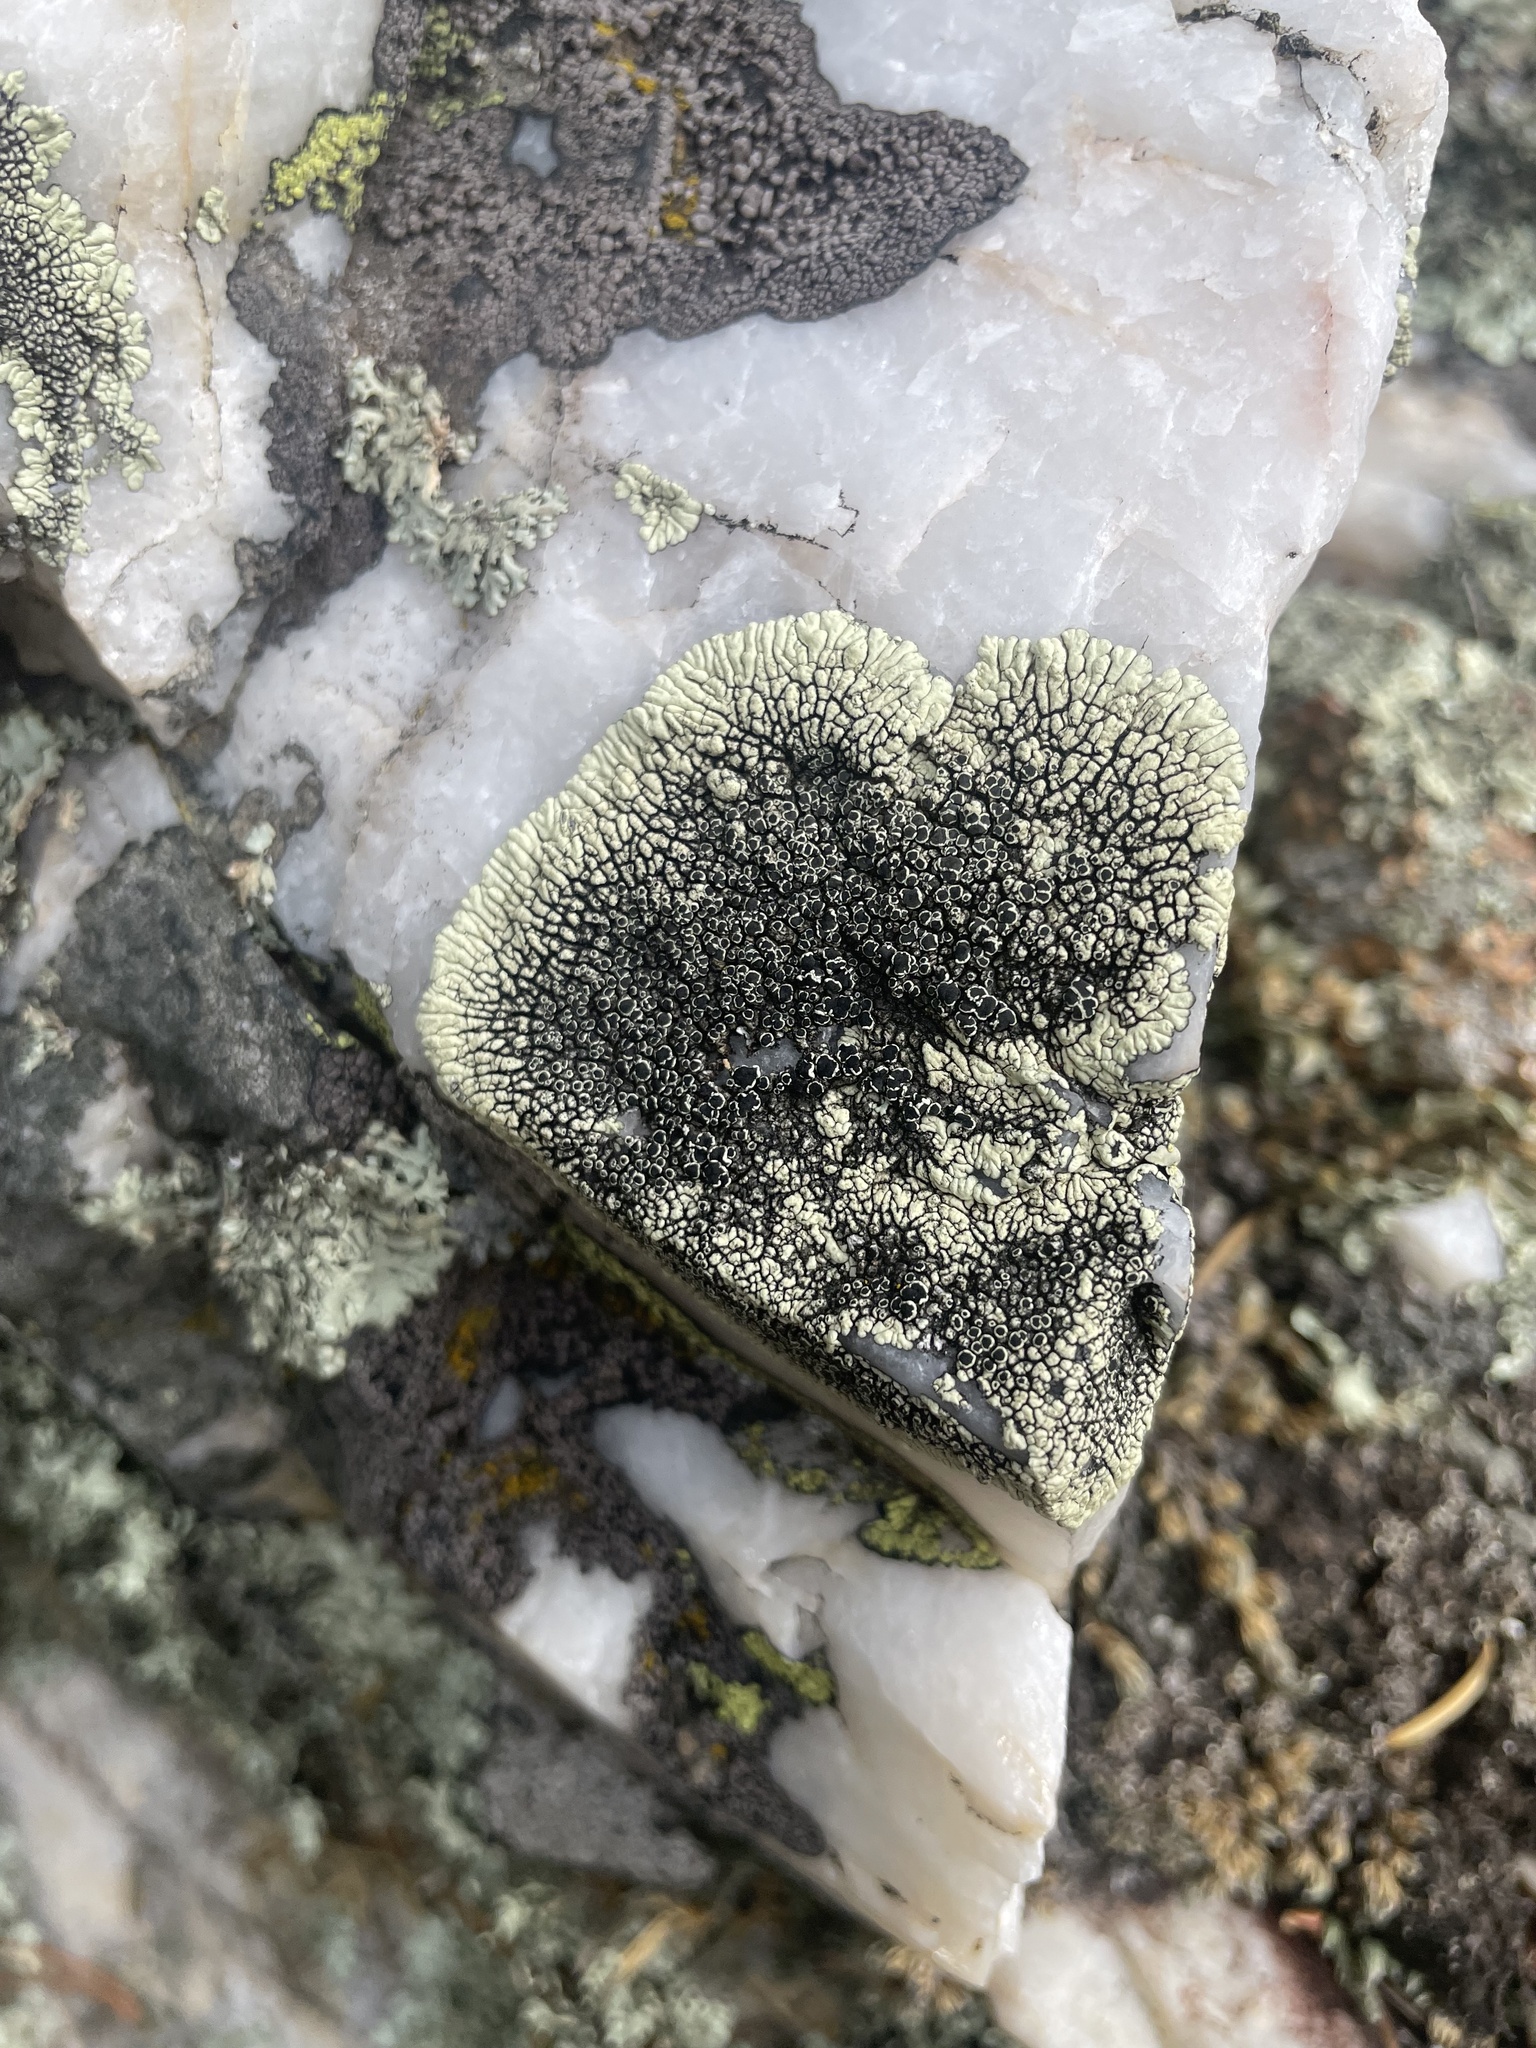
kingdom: Fungi
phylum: Ascomycota
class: Lecanoromycetes
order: Caliciales
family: Caliciaceae
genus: Dimelaena
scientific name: Dimelaena oreina
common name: Golden moonglow lichen
